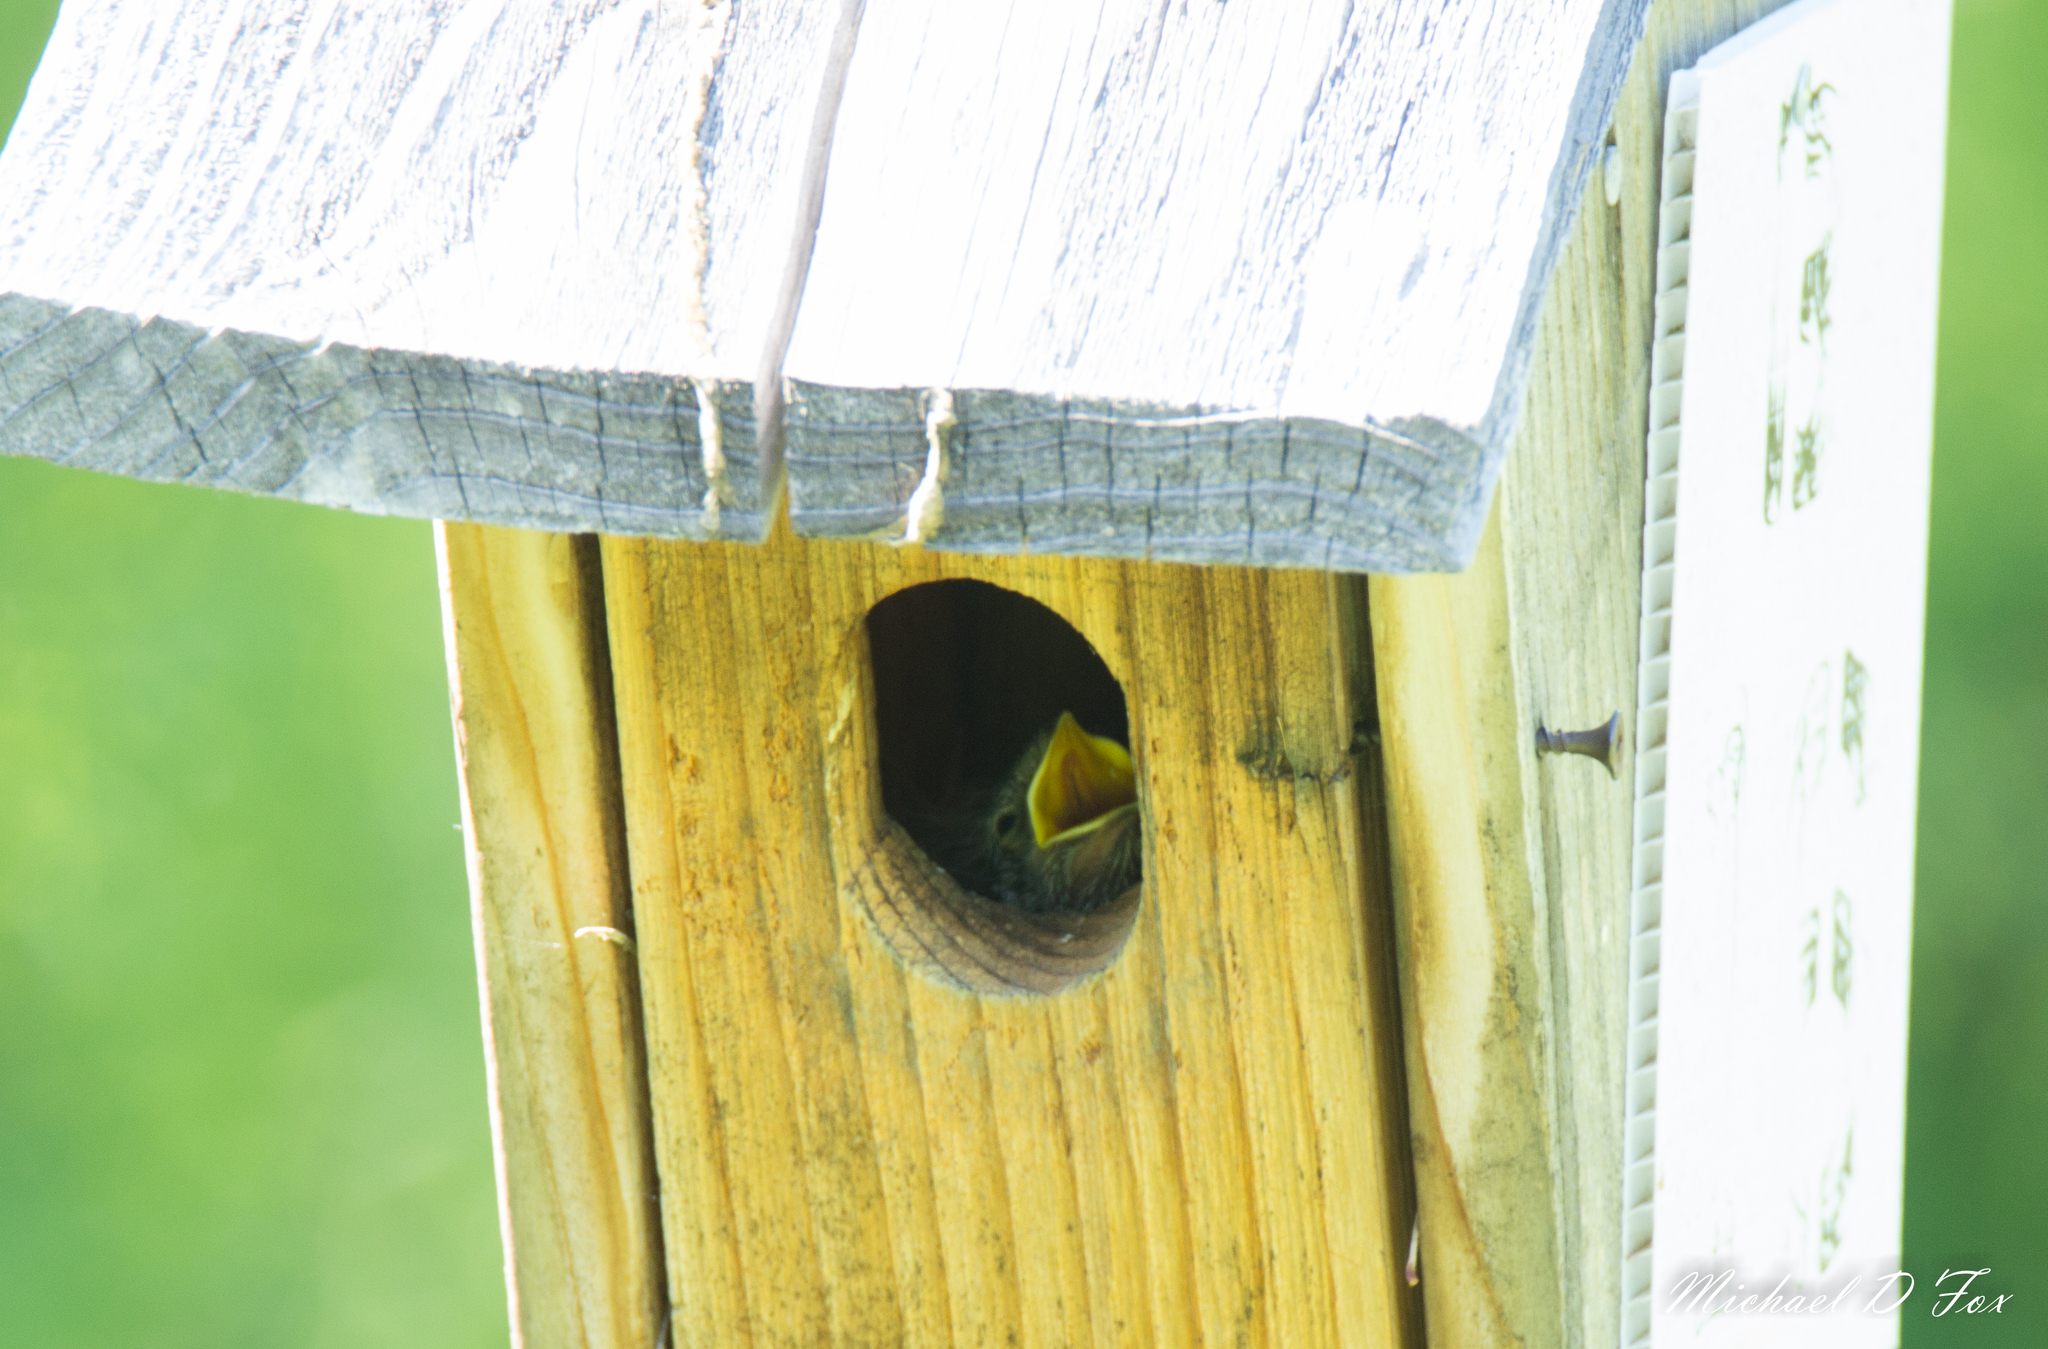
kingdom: Animalia
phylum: Chordata
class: Aves
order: Passeriformes
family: Turdidae
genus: Sialia
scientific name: Sialia sialis
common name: Eastern bluebird
